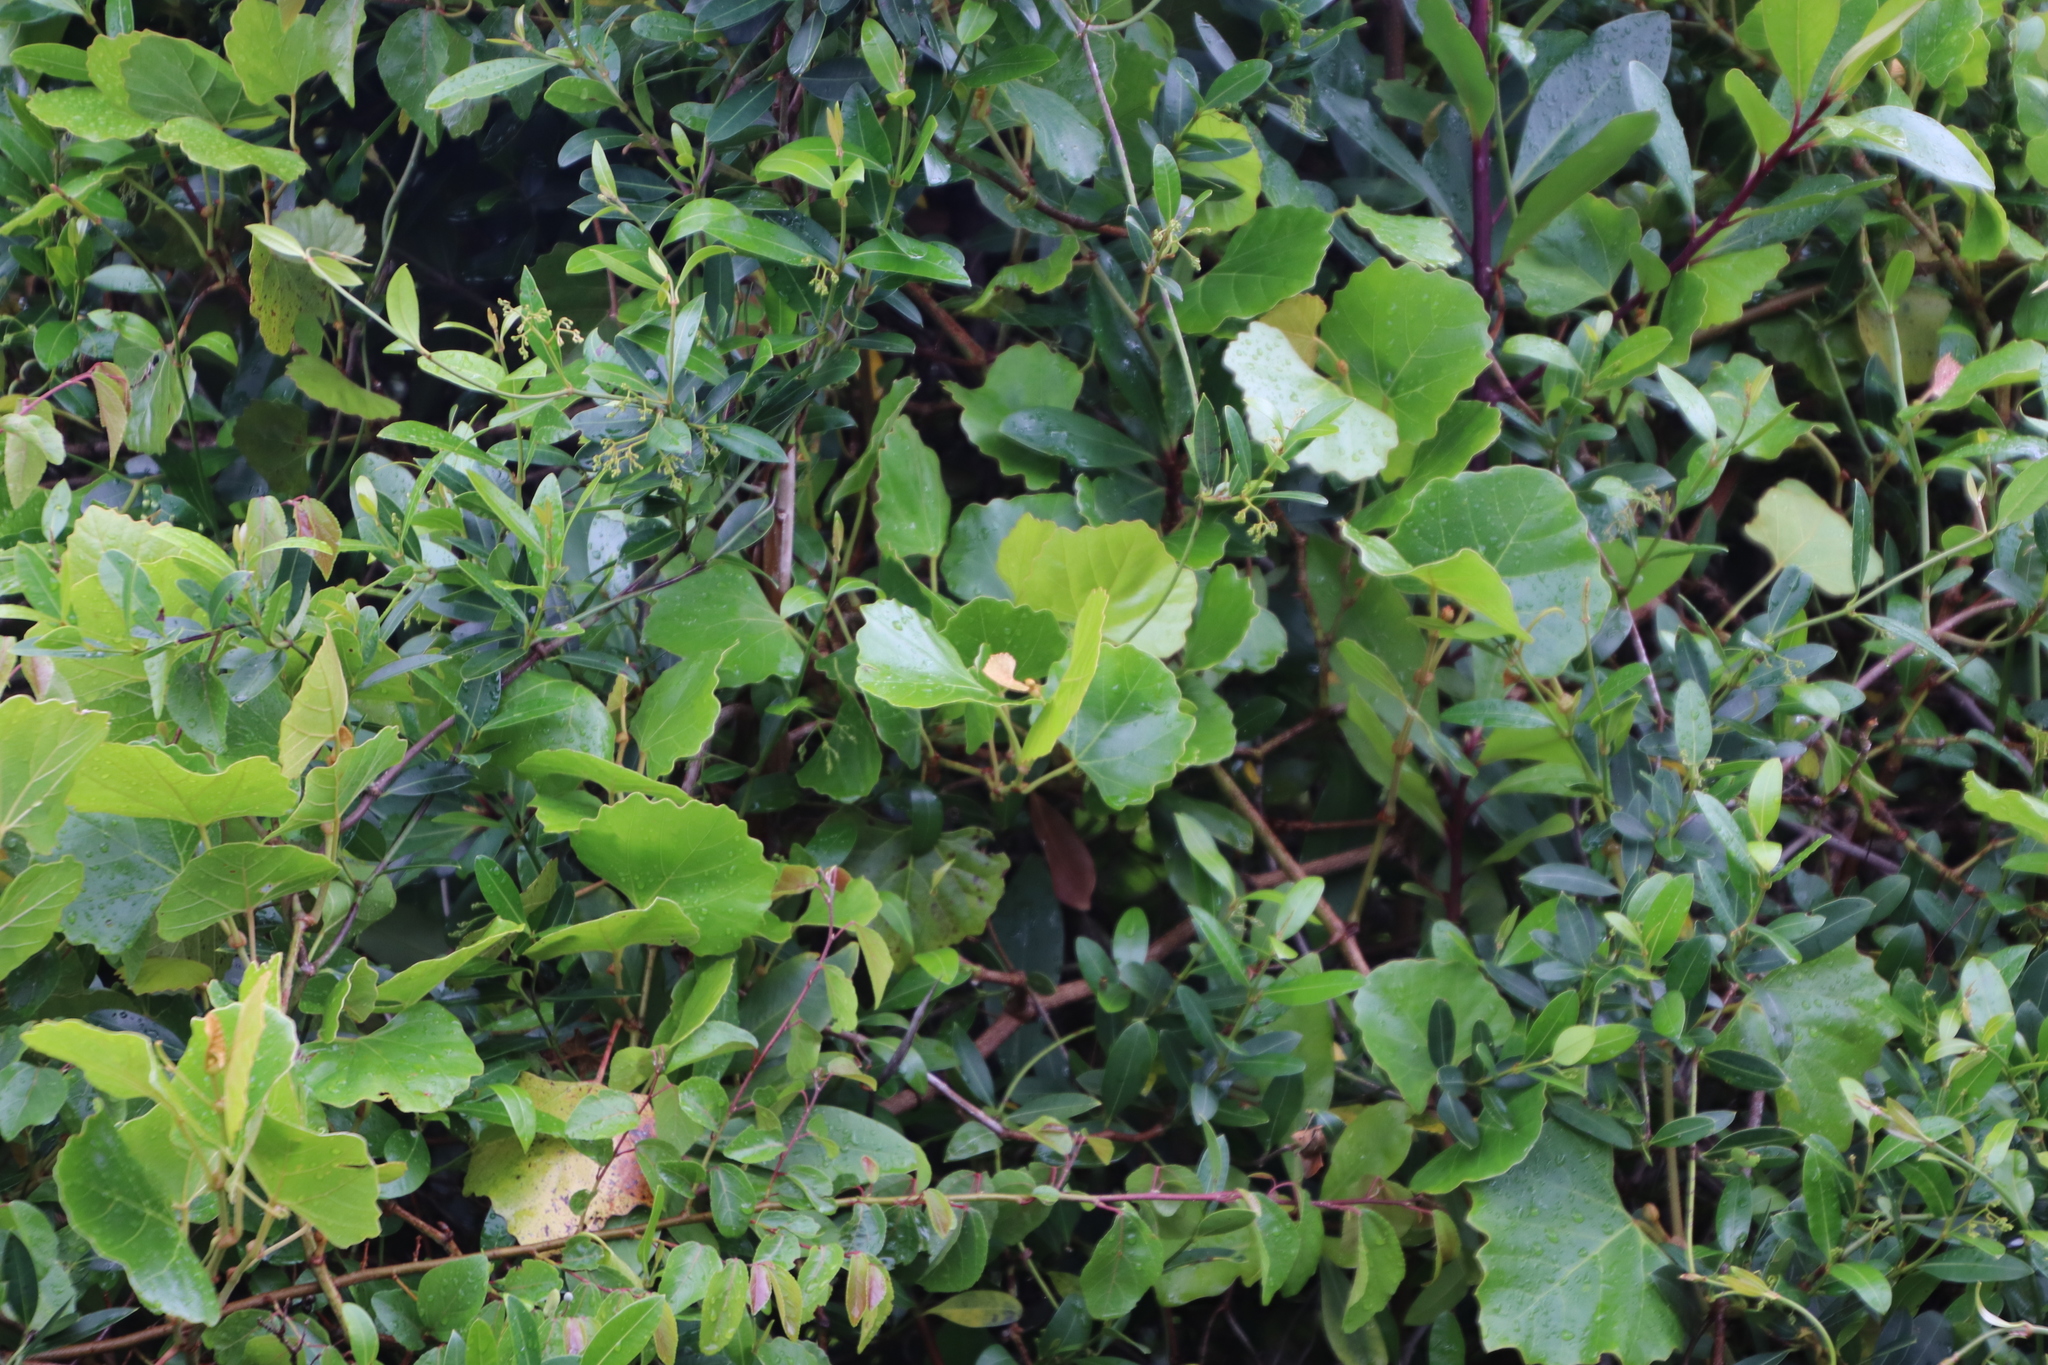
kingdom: Plantae
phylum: Tracheophyta
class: Magnoliopsida
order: Vitales
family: Vitaceae
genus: Rhoicissus
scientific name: Rhoicissus tomentosa
